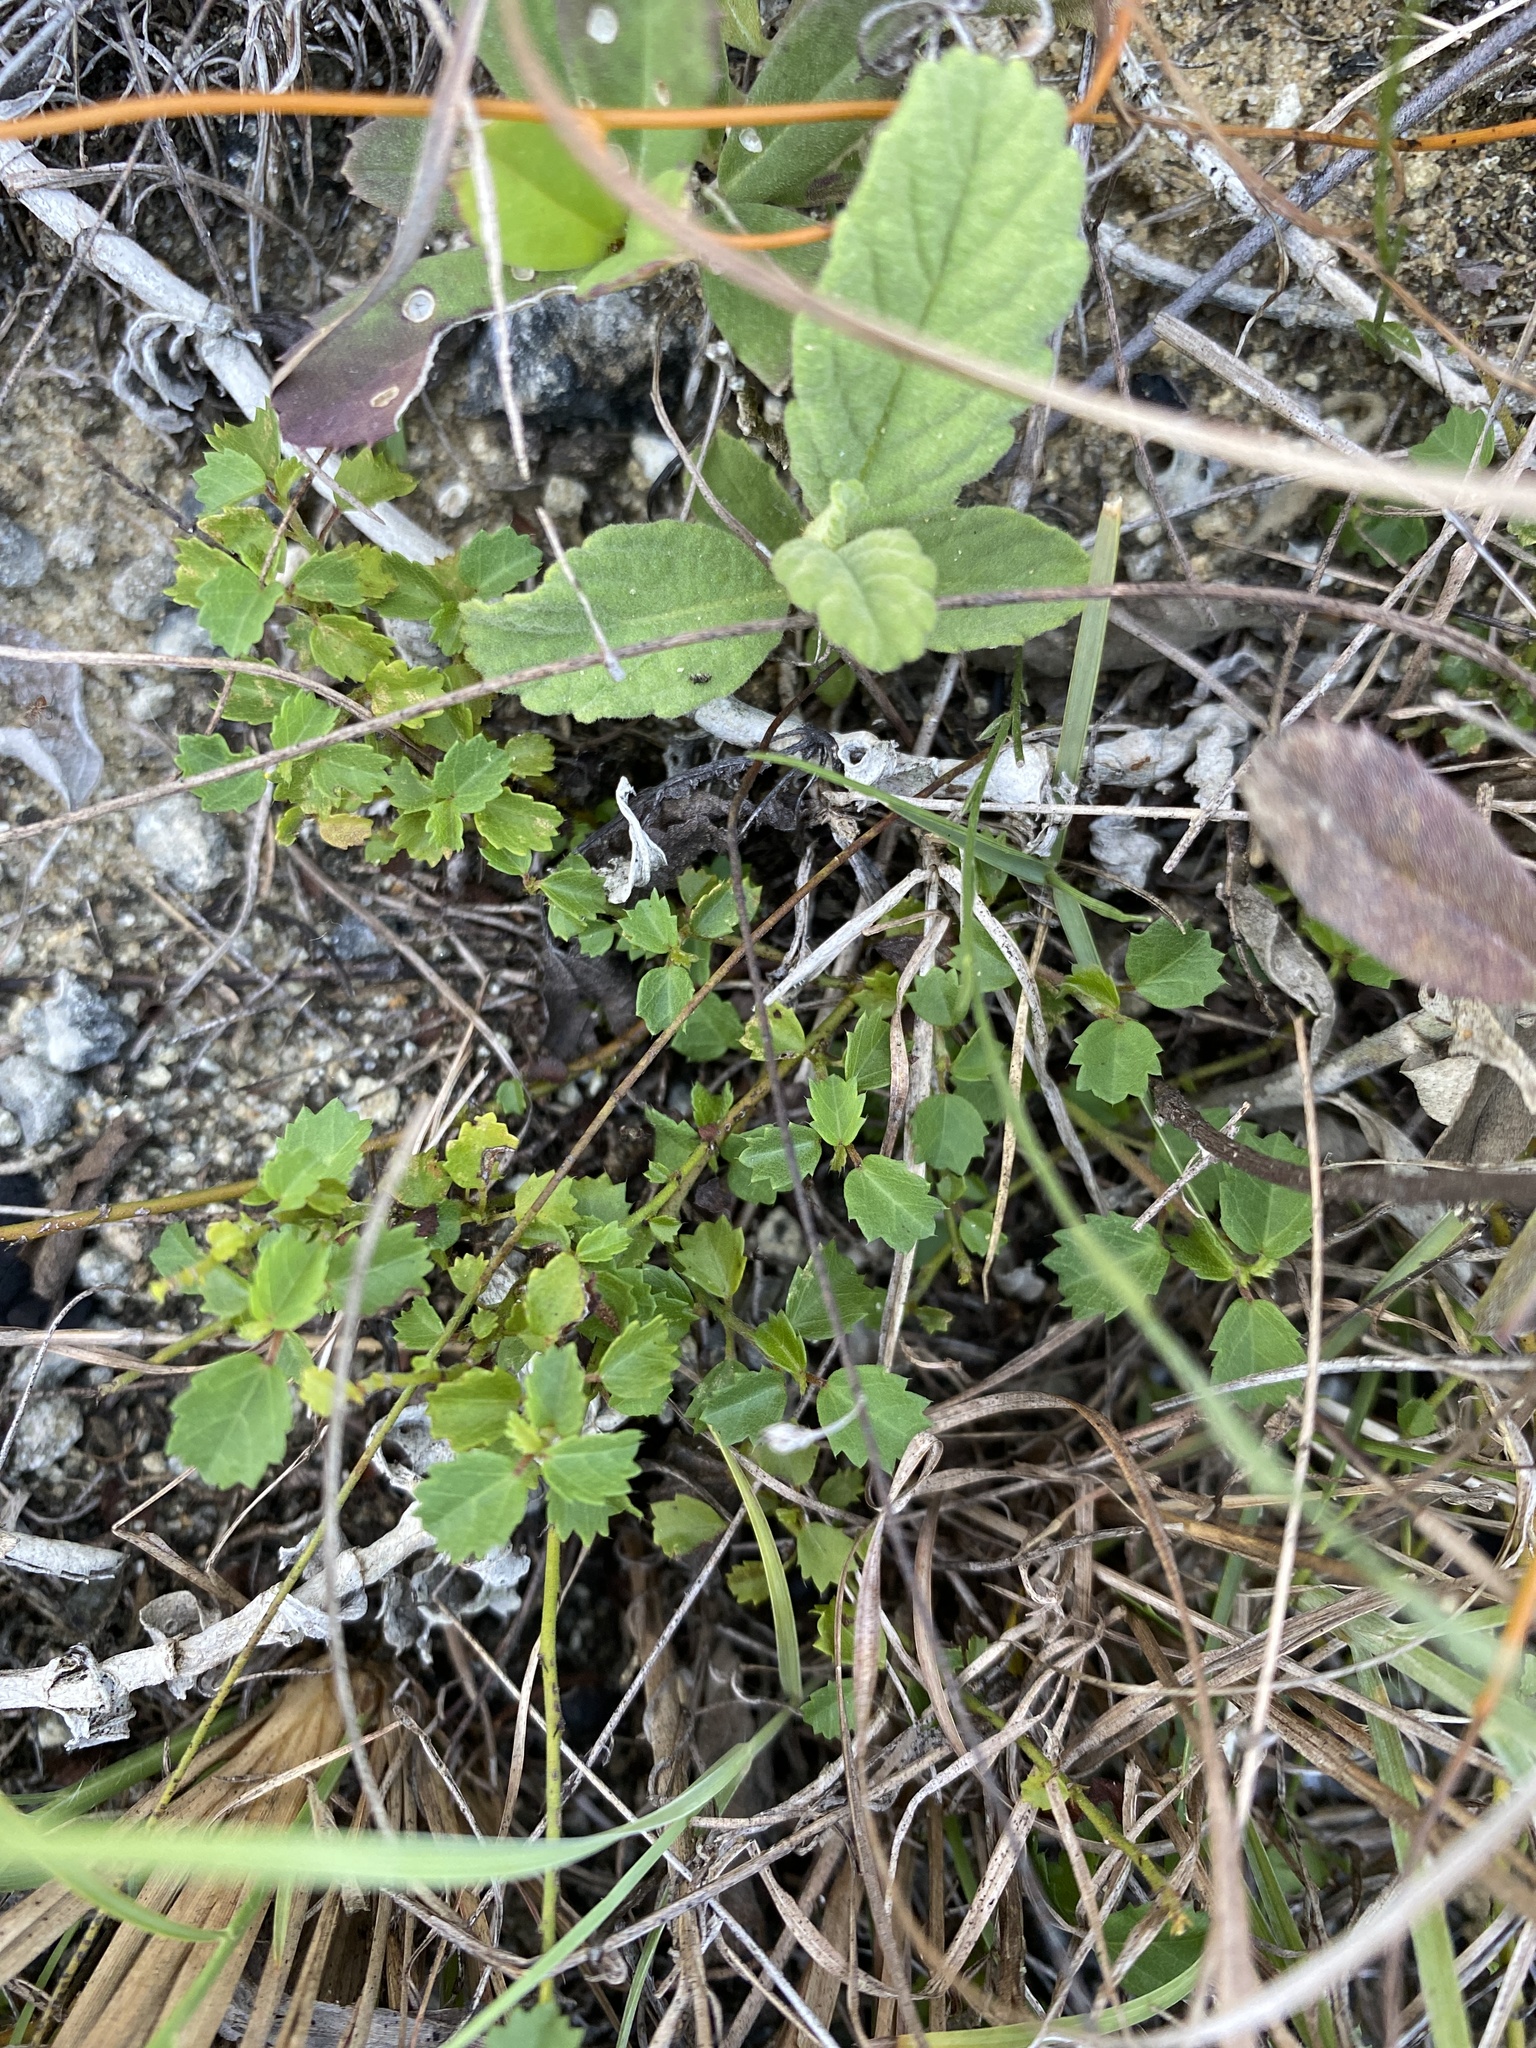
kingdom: Plantae
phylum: Tracheophyta
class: Magnoliopsida
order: Malvales
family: Malvaceae
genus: Ayenia
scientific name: Ayenia euphrasiifolia
